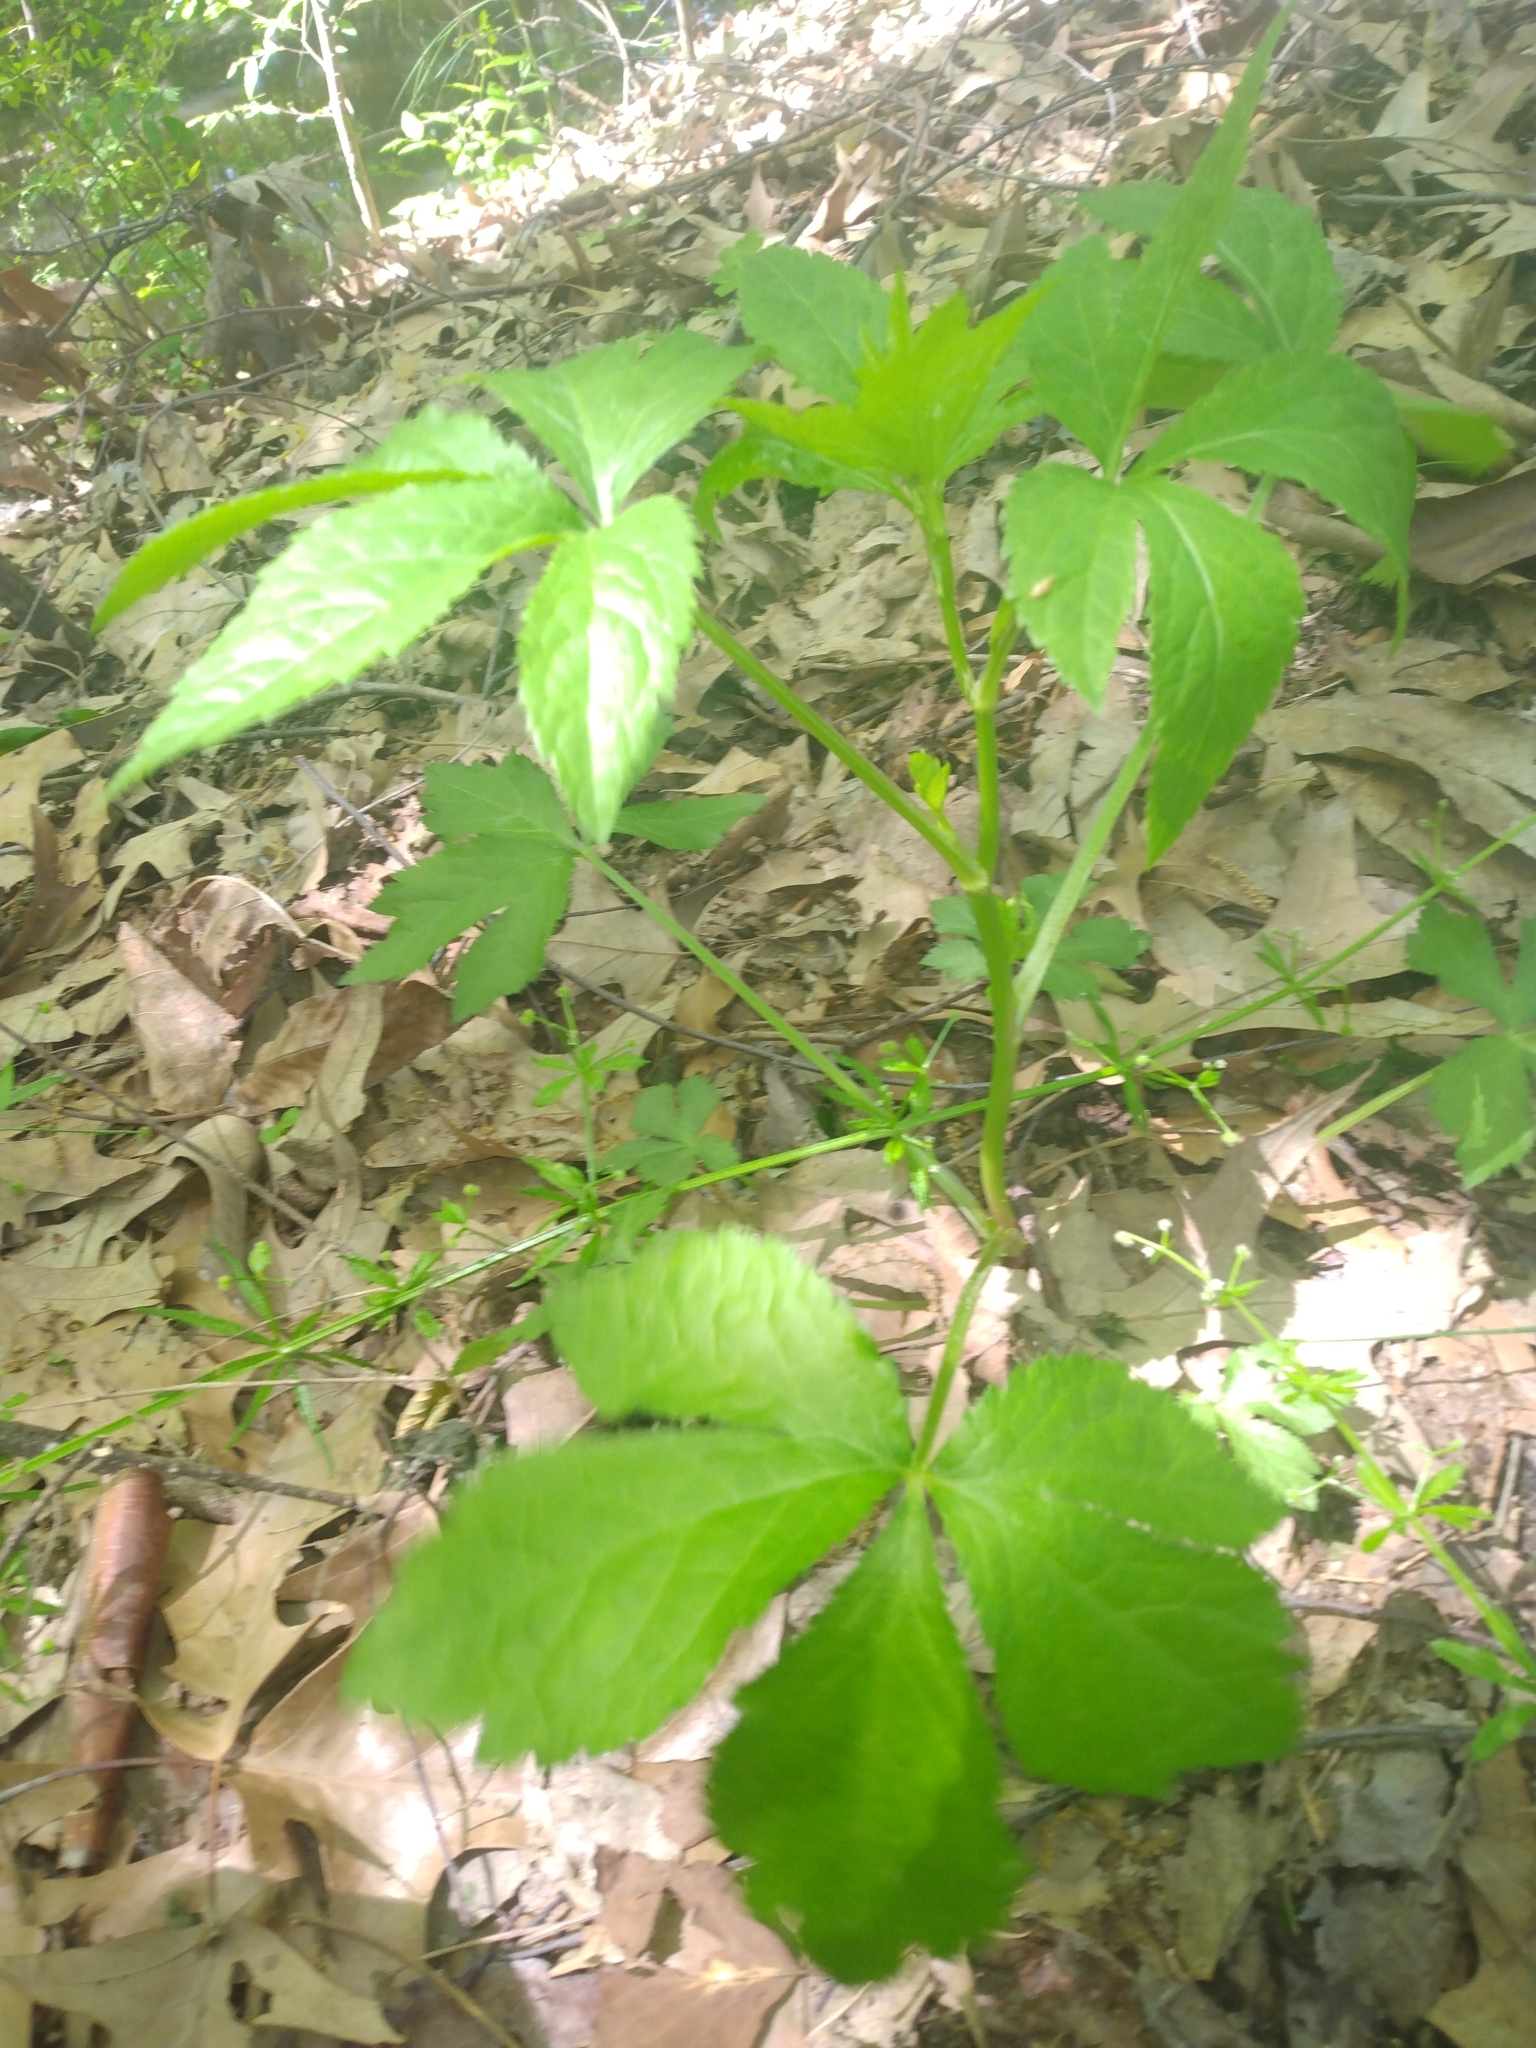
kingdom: Plantae
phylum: Tracheophyta
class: Magnoliopsida
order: Apiales
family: Apiaceae
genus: Cryptotaenia
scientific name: Cryptotaenia canadensis
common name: Honewort
